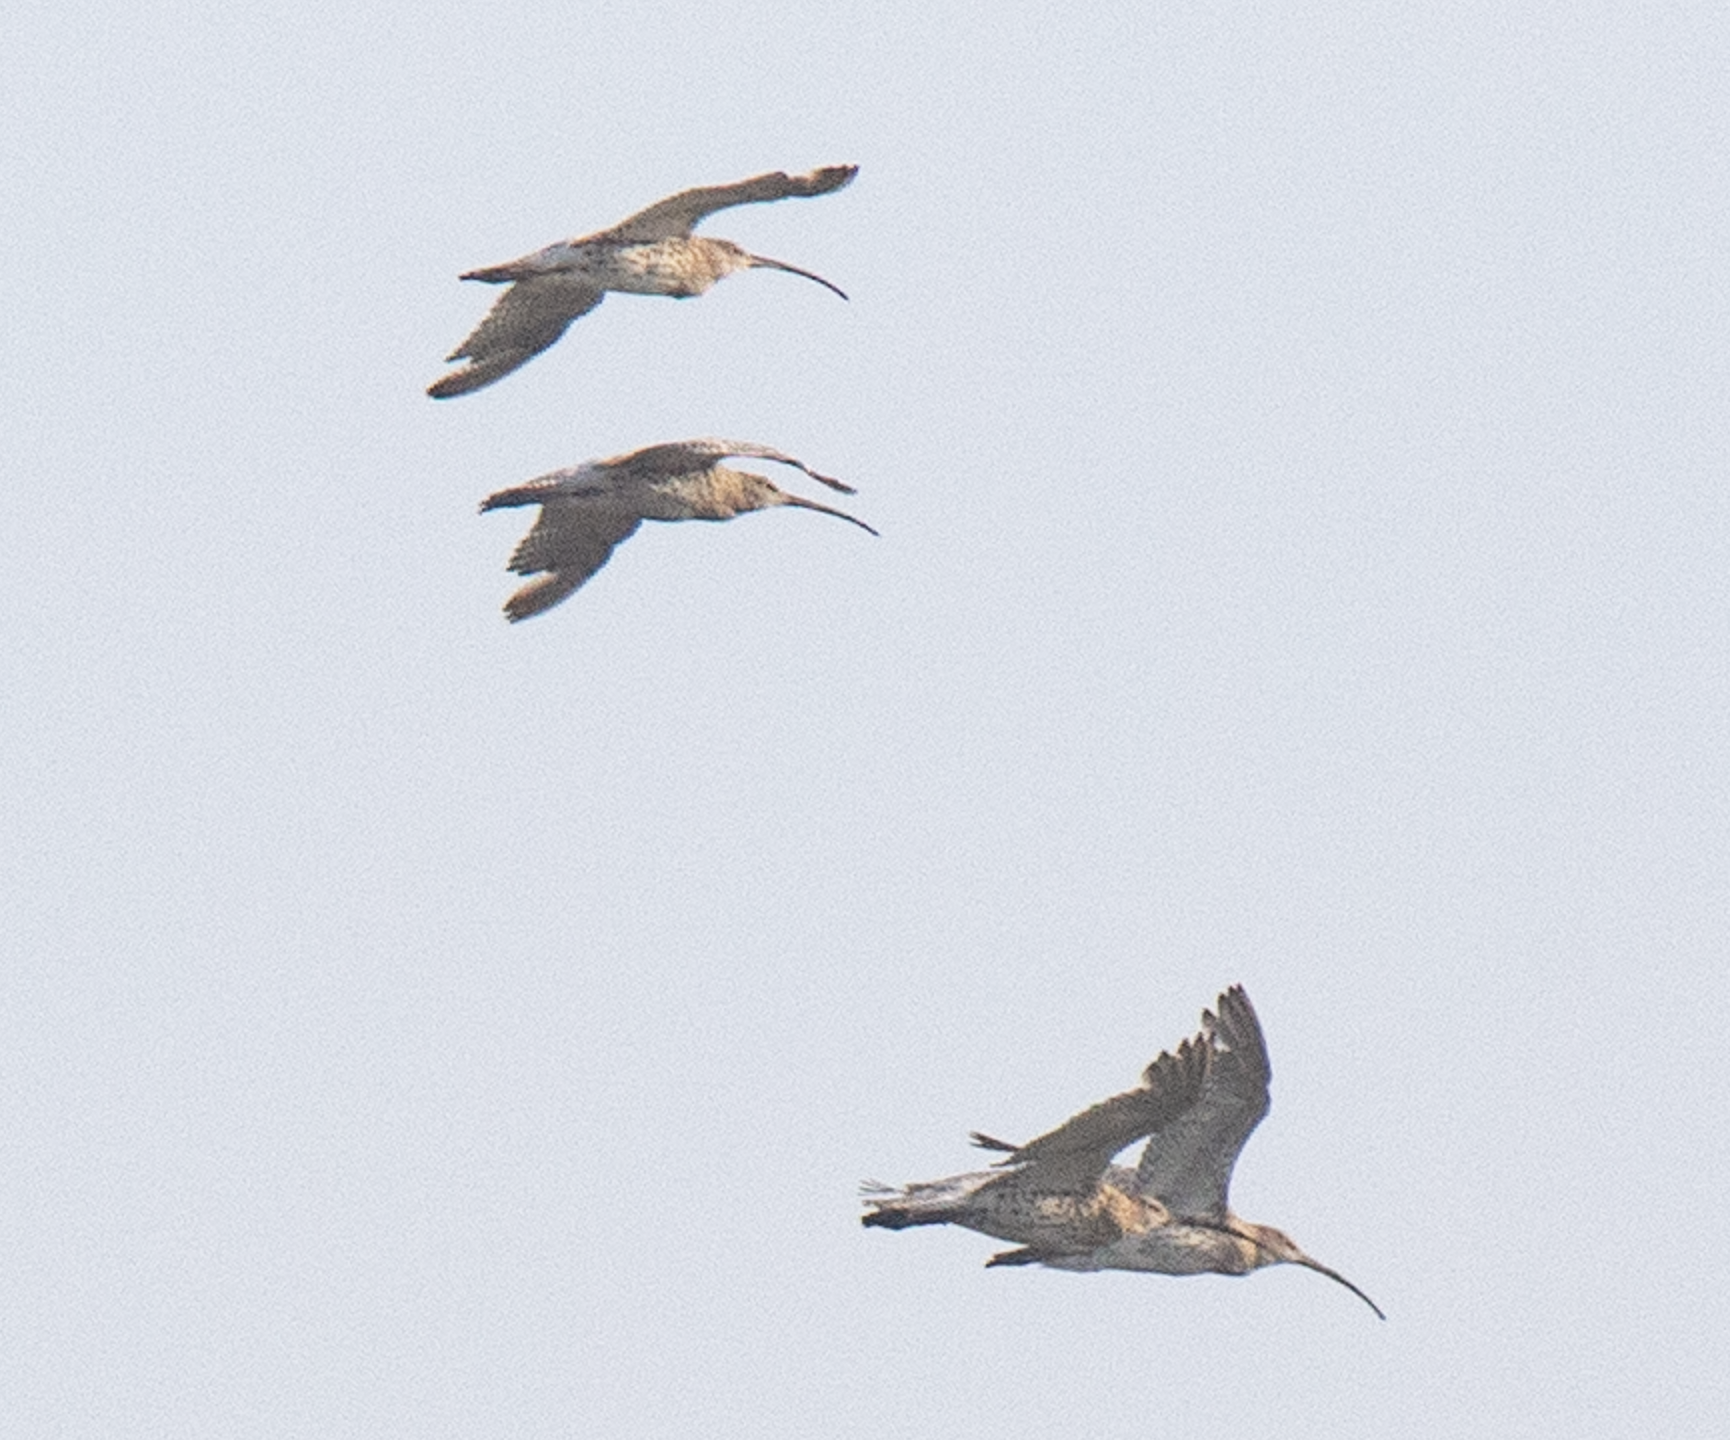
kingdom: Animalia
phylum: Chordata
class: Aves
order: Charadriiformes
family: Scolopacidae
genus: Numenius
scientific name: Numenius arquata
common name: Eurasian curlew
